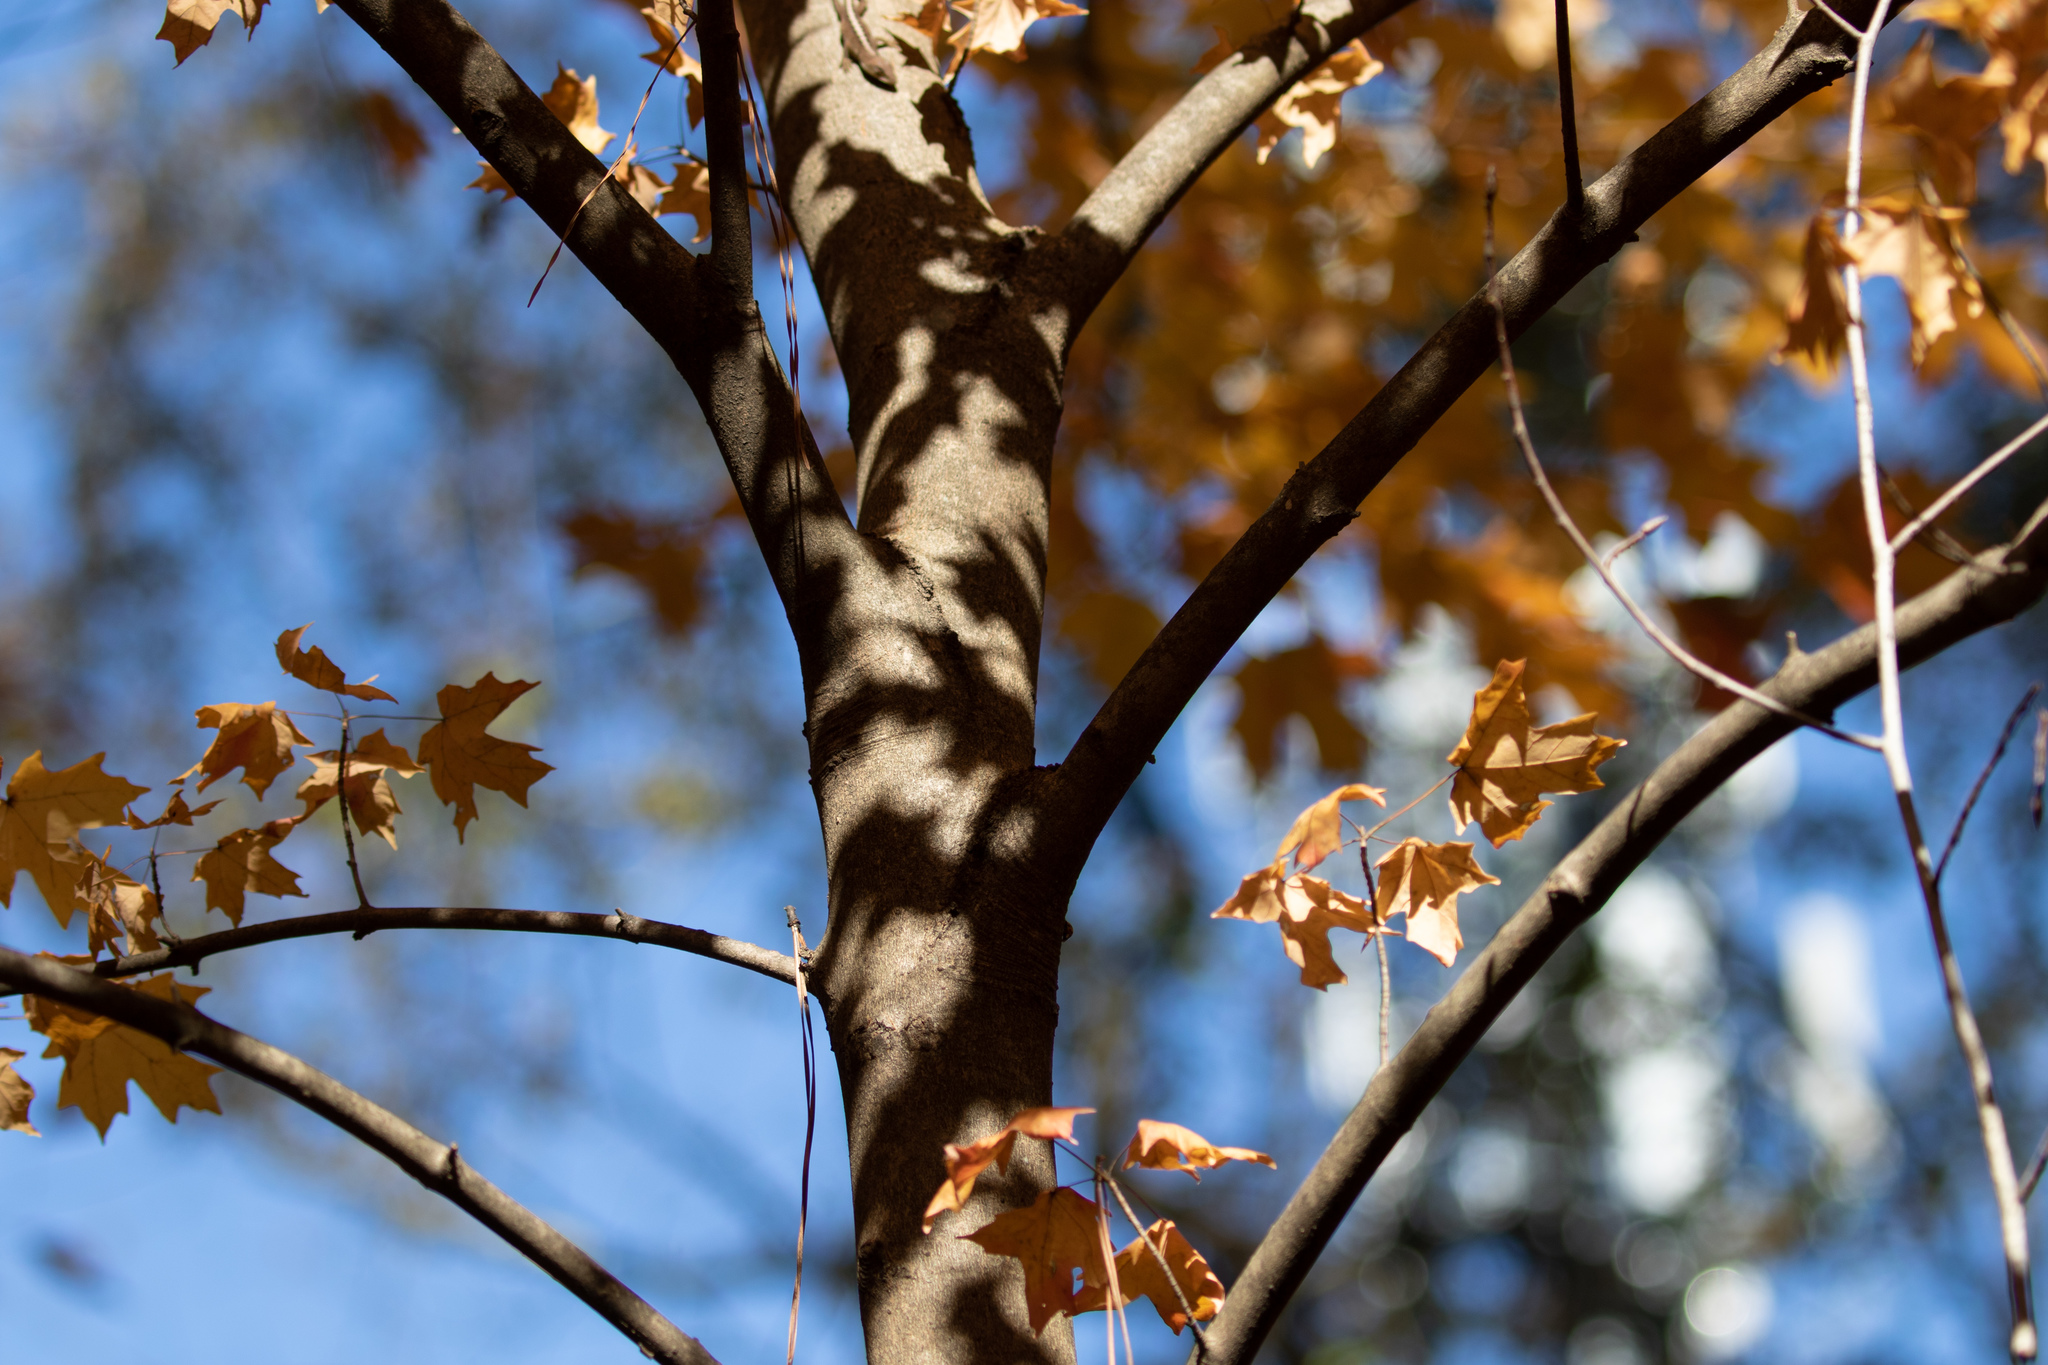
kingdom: Plantae
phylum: Tracheophyta
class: Magnoliopsida
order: Sapindales
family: Sapindaceae
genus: Acer
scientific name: Acer floridanum
